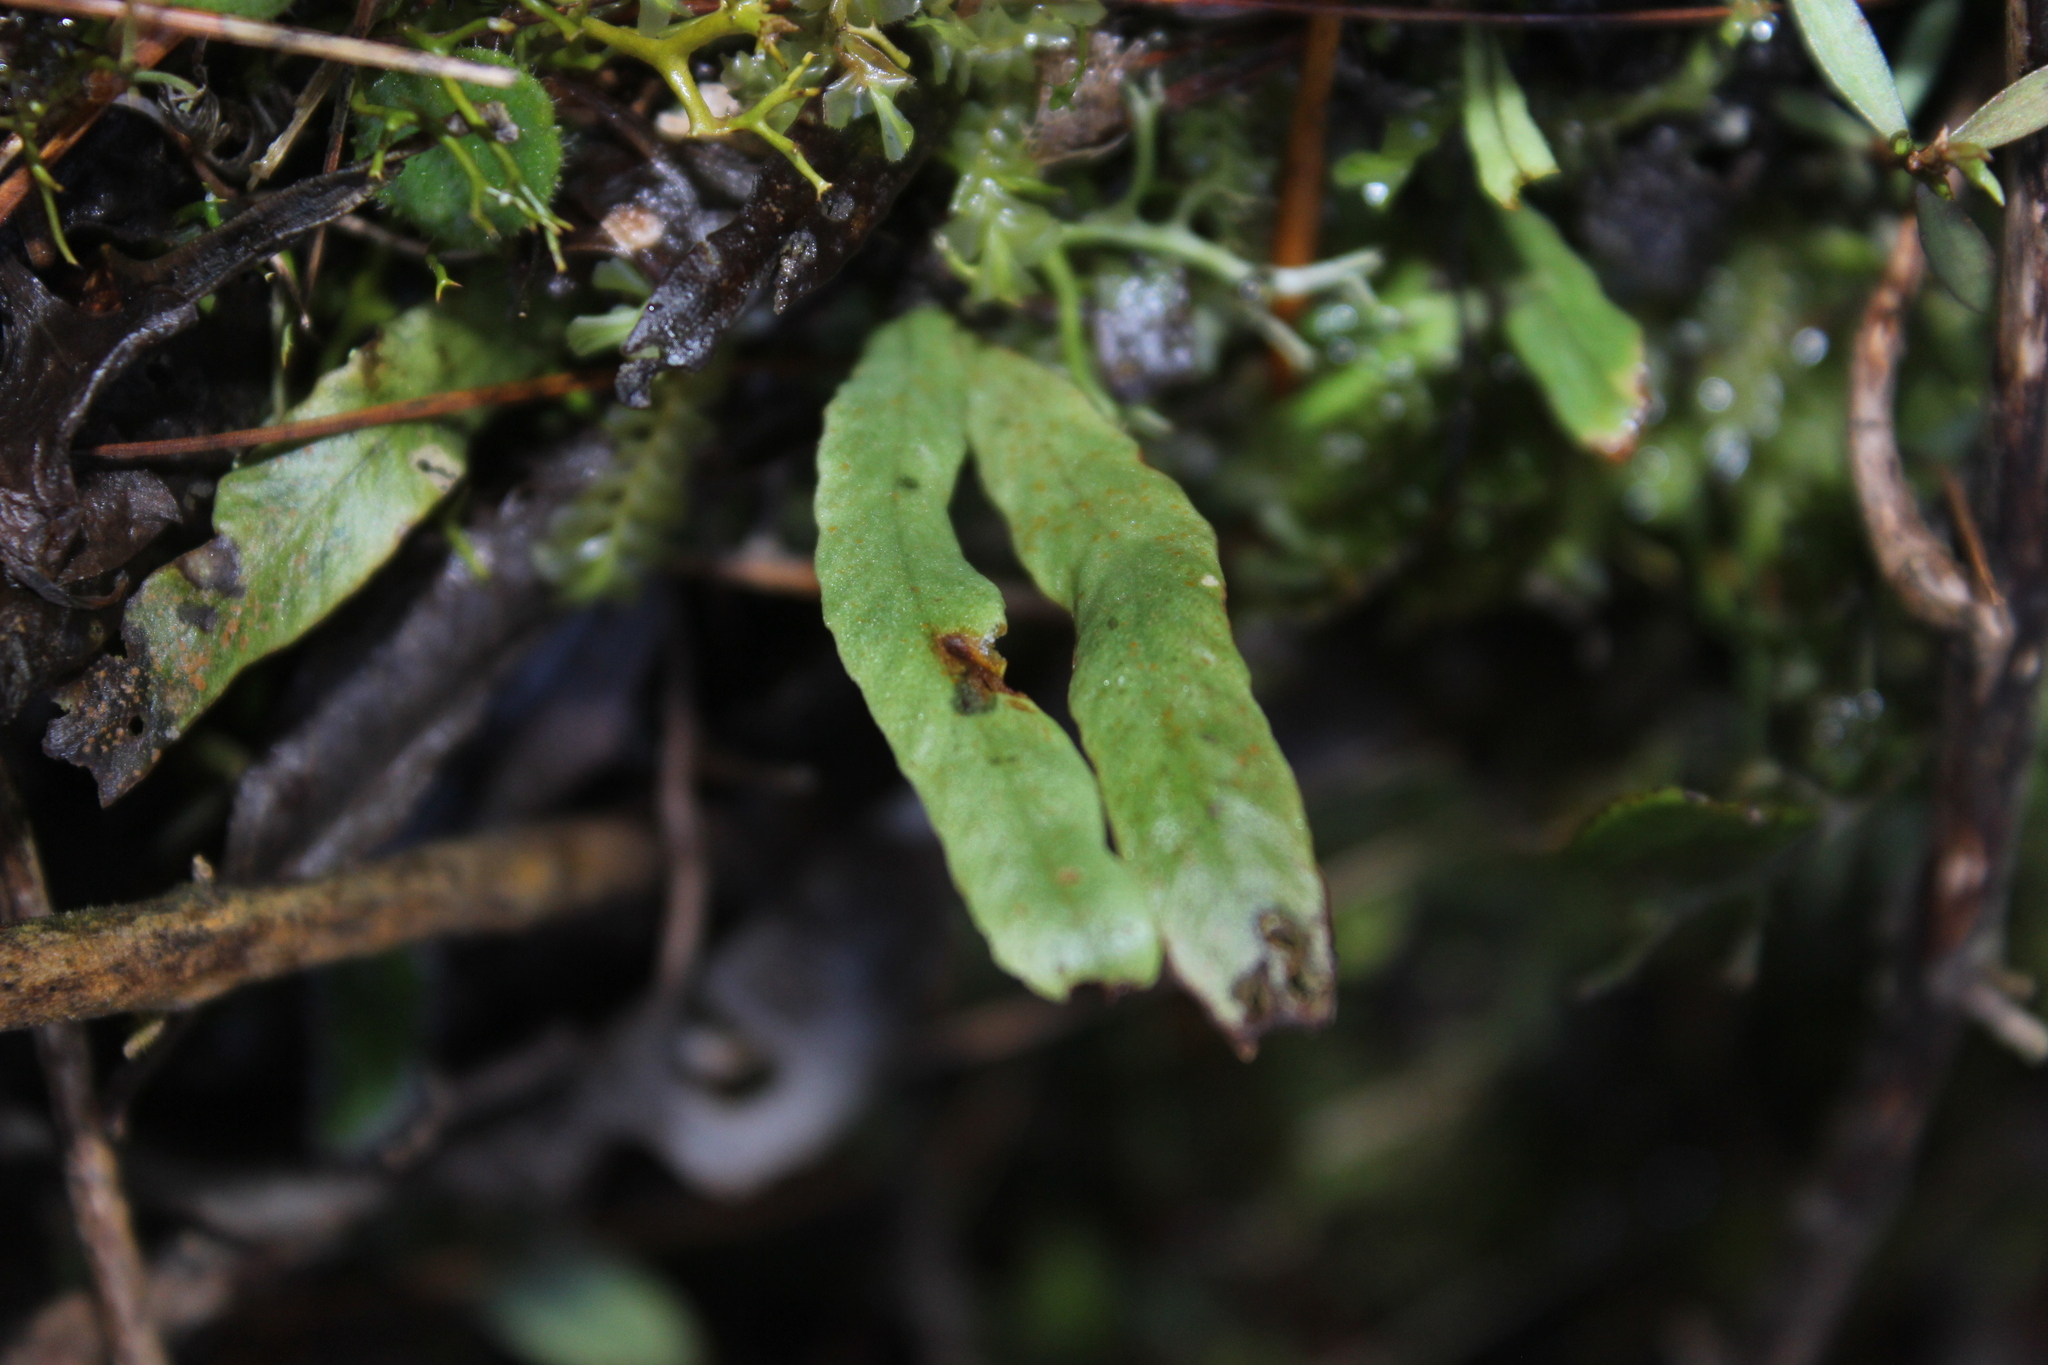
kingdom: Plantae
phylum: Tracheophyta
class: Polypodiopsida
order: Polypodiales
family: Polypodiaceae
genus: Notogrammitis
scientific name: Notogrammitis billardierei
